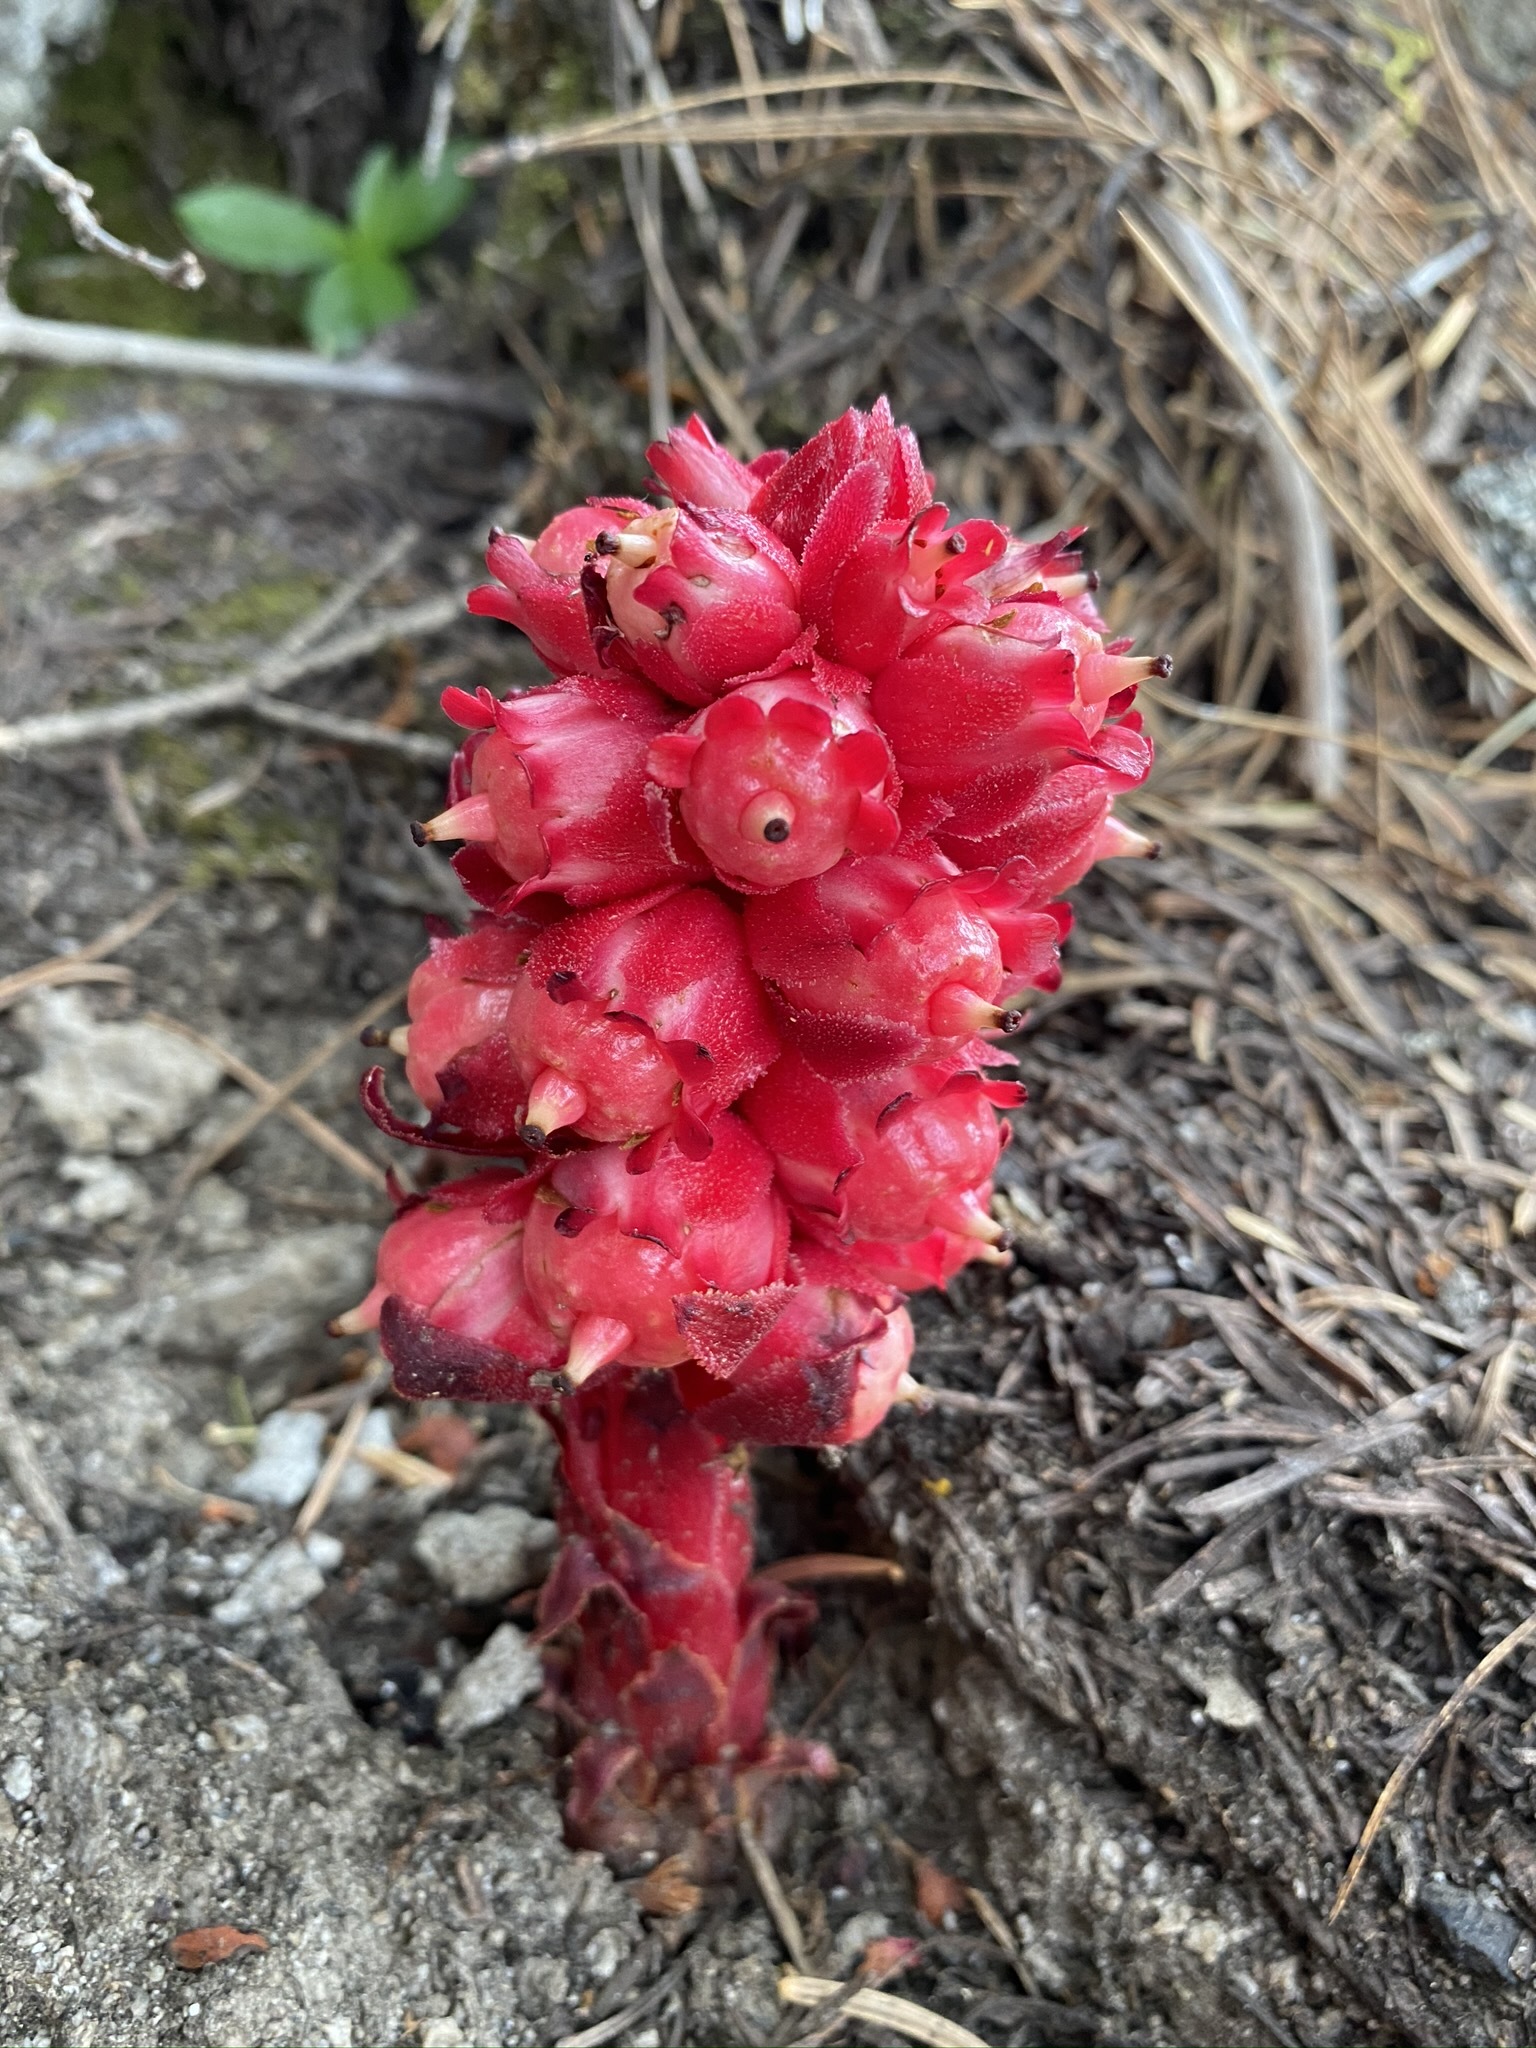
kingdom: Plantae
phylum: Tracheophyta
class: Magnoliopsida
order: Ericales
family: Ericaceae
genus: Sarcodes
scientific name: Sarcodes sanguinea
